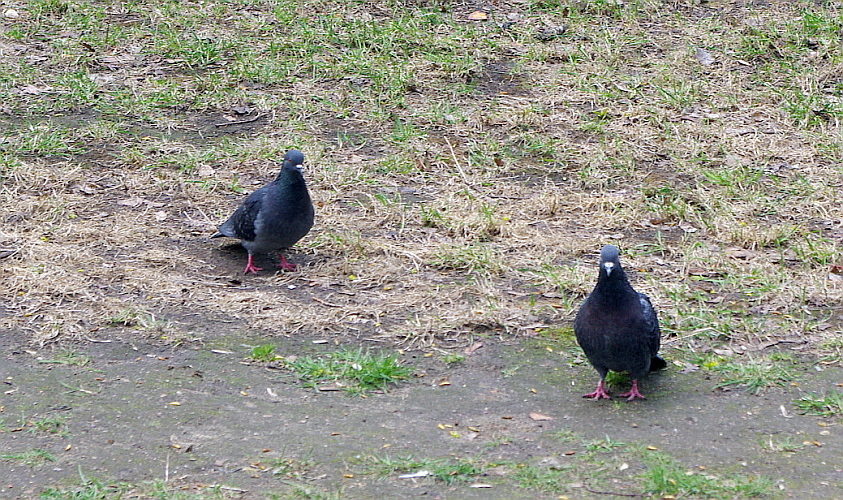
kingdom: Animalia
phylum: Chordata
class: Aves
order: Columbiformes
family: Columbidae
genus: Columba
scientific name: Columba livia
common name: Rock pigeon
